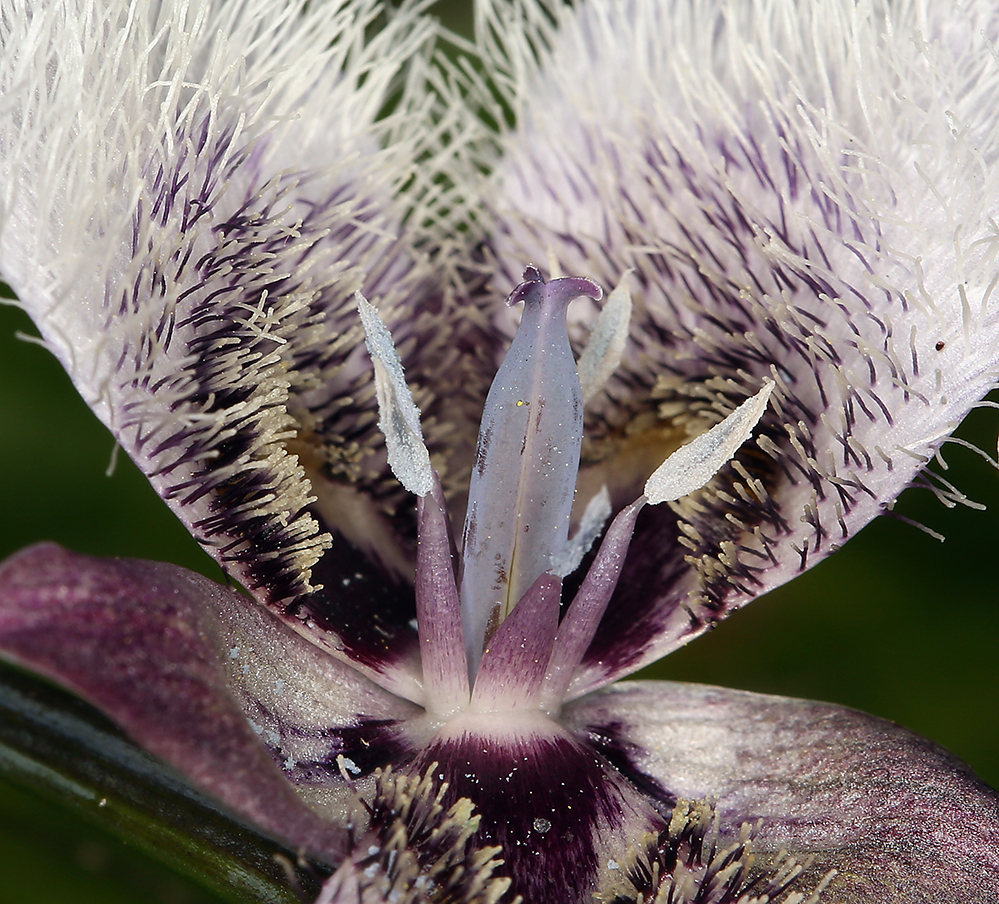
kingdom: Plantae
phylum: Tracheophyta
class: Liliopsida
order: Liliales
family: Liliaceae
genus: Calochortus
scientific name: Calochortus tolmiei
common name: Pussy-ears
